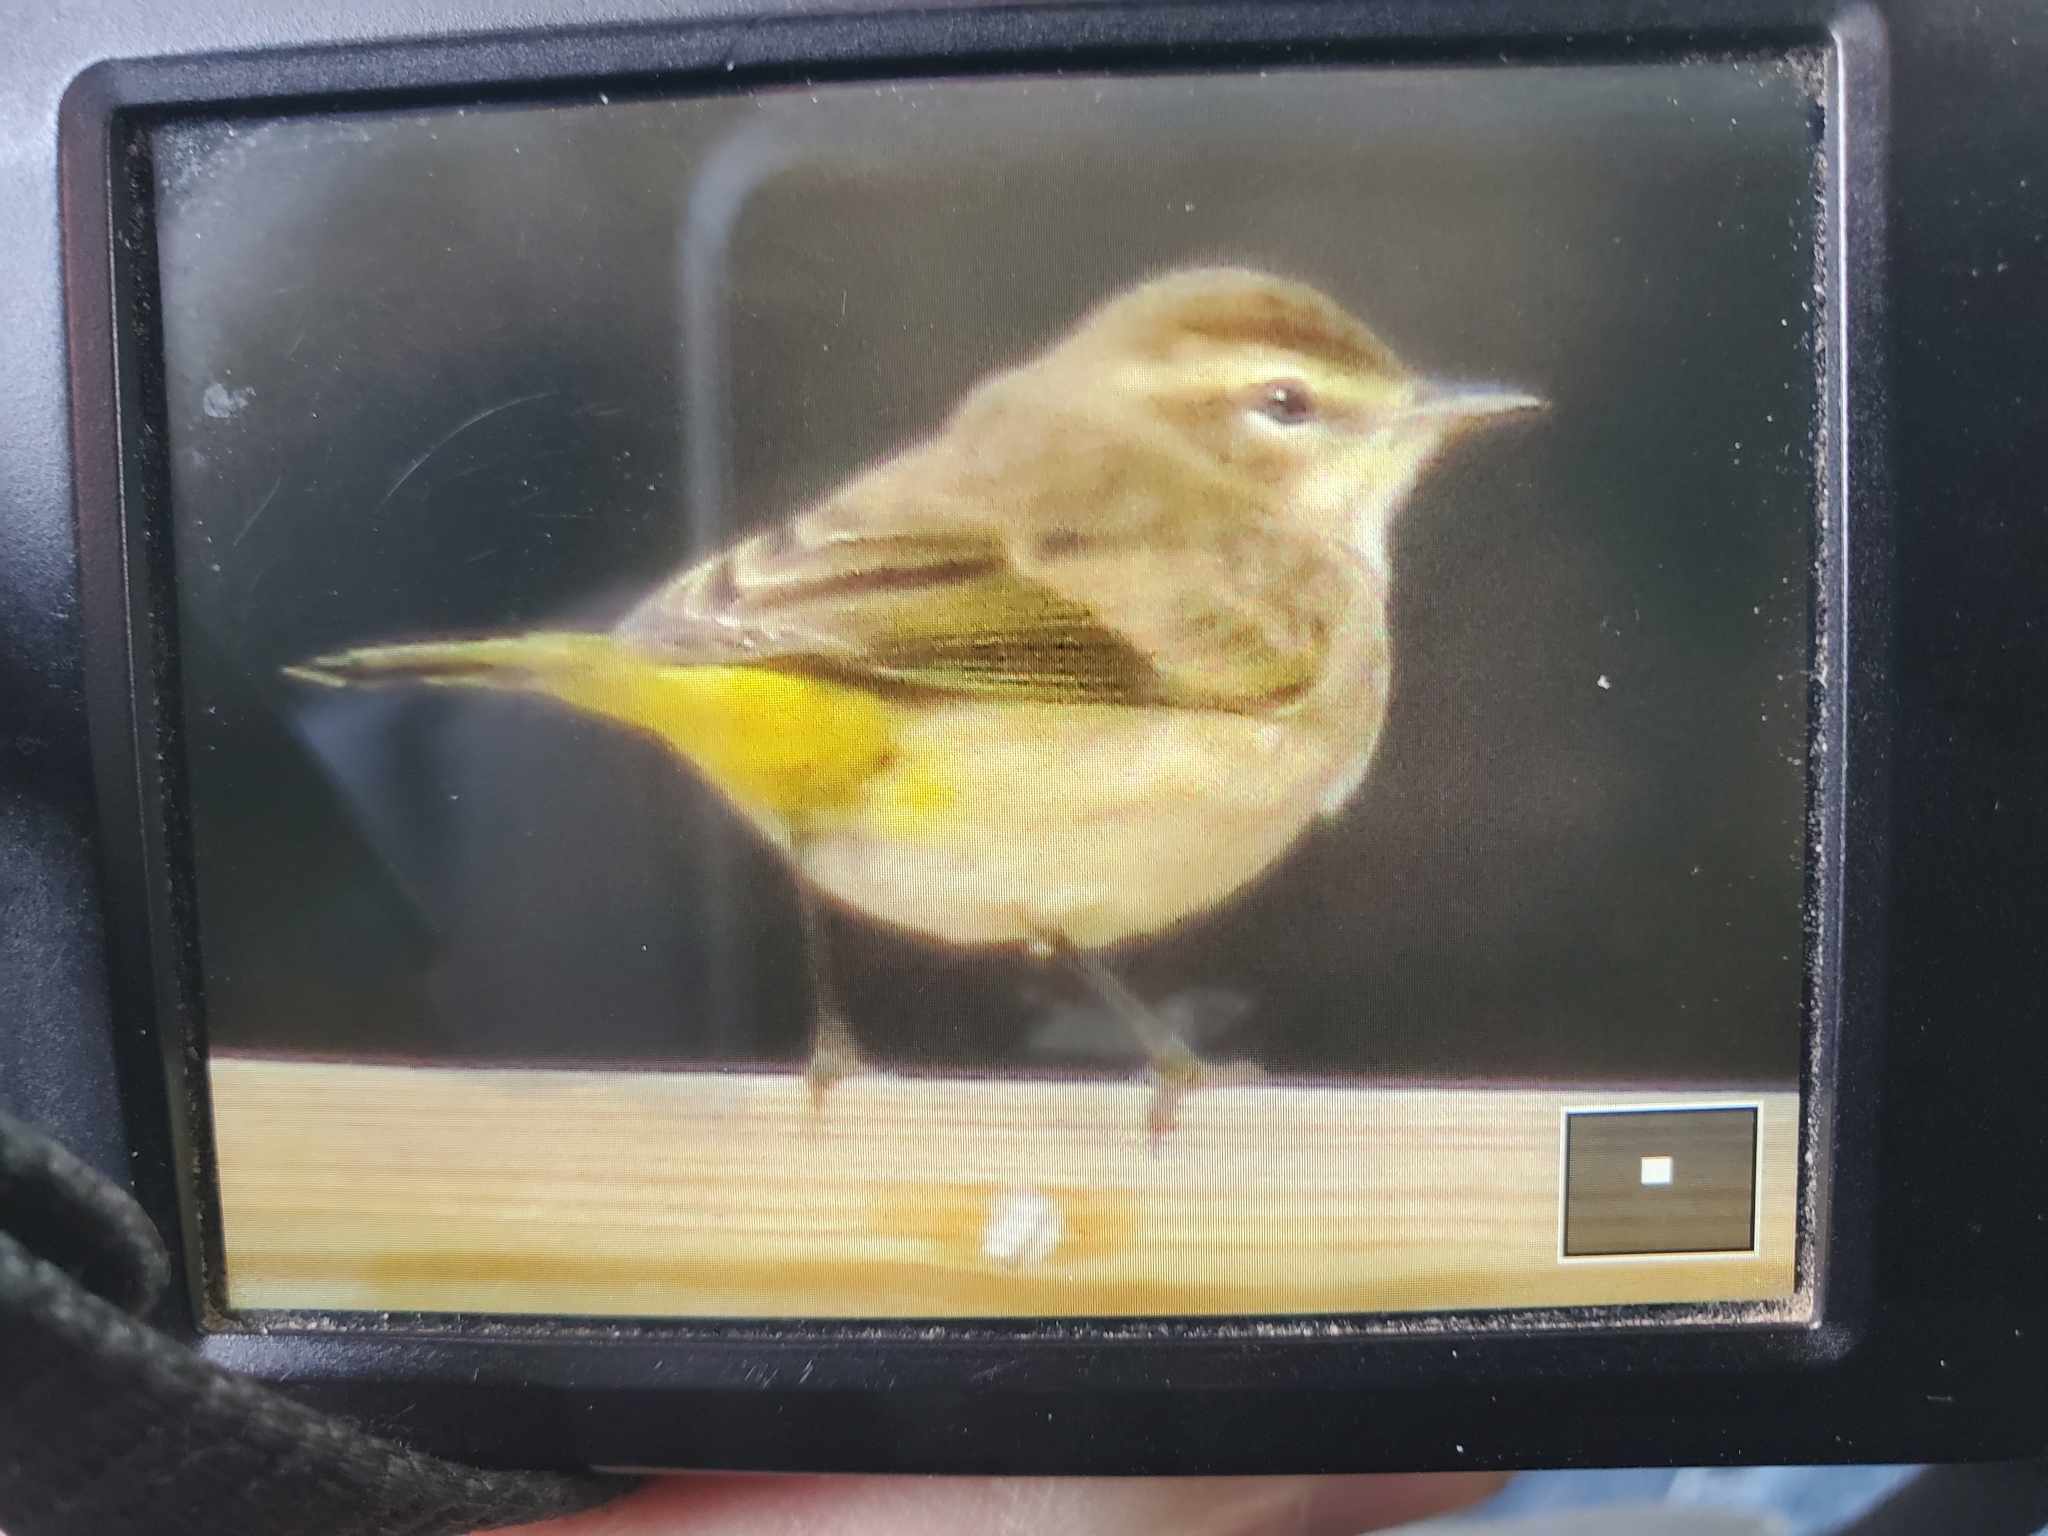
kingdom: Animalia
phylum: Chordata
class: Aves
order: Passeriformes
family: Parulidae
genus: Setophaga
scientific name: Setophaga palmarum
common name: Palm warbler
